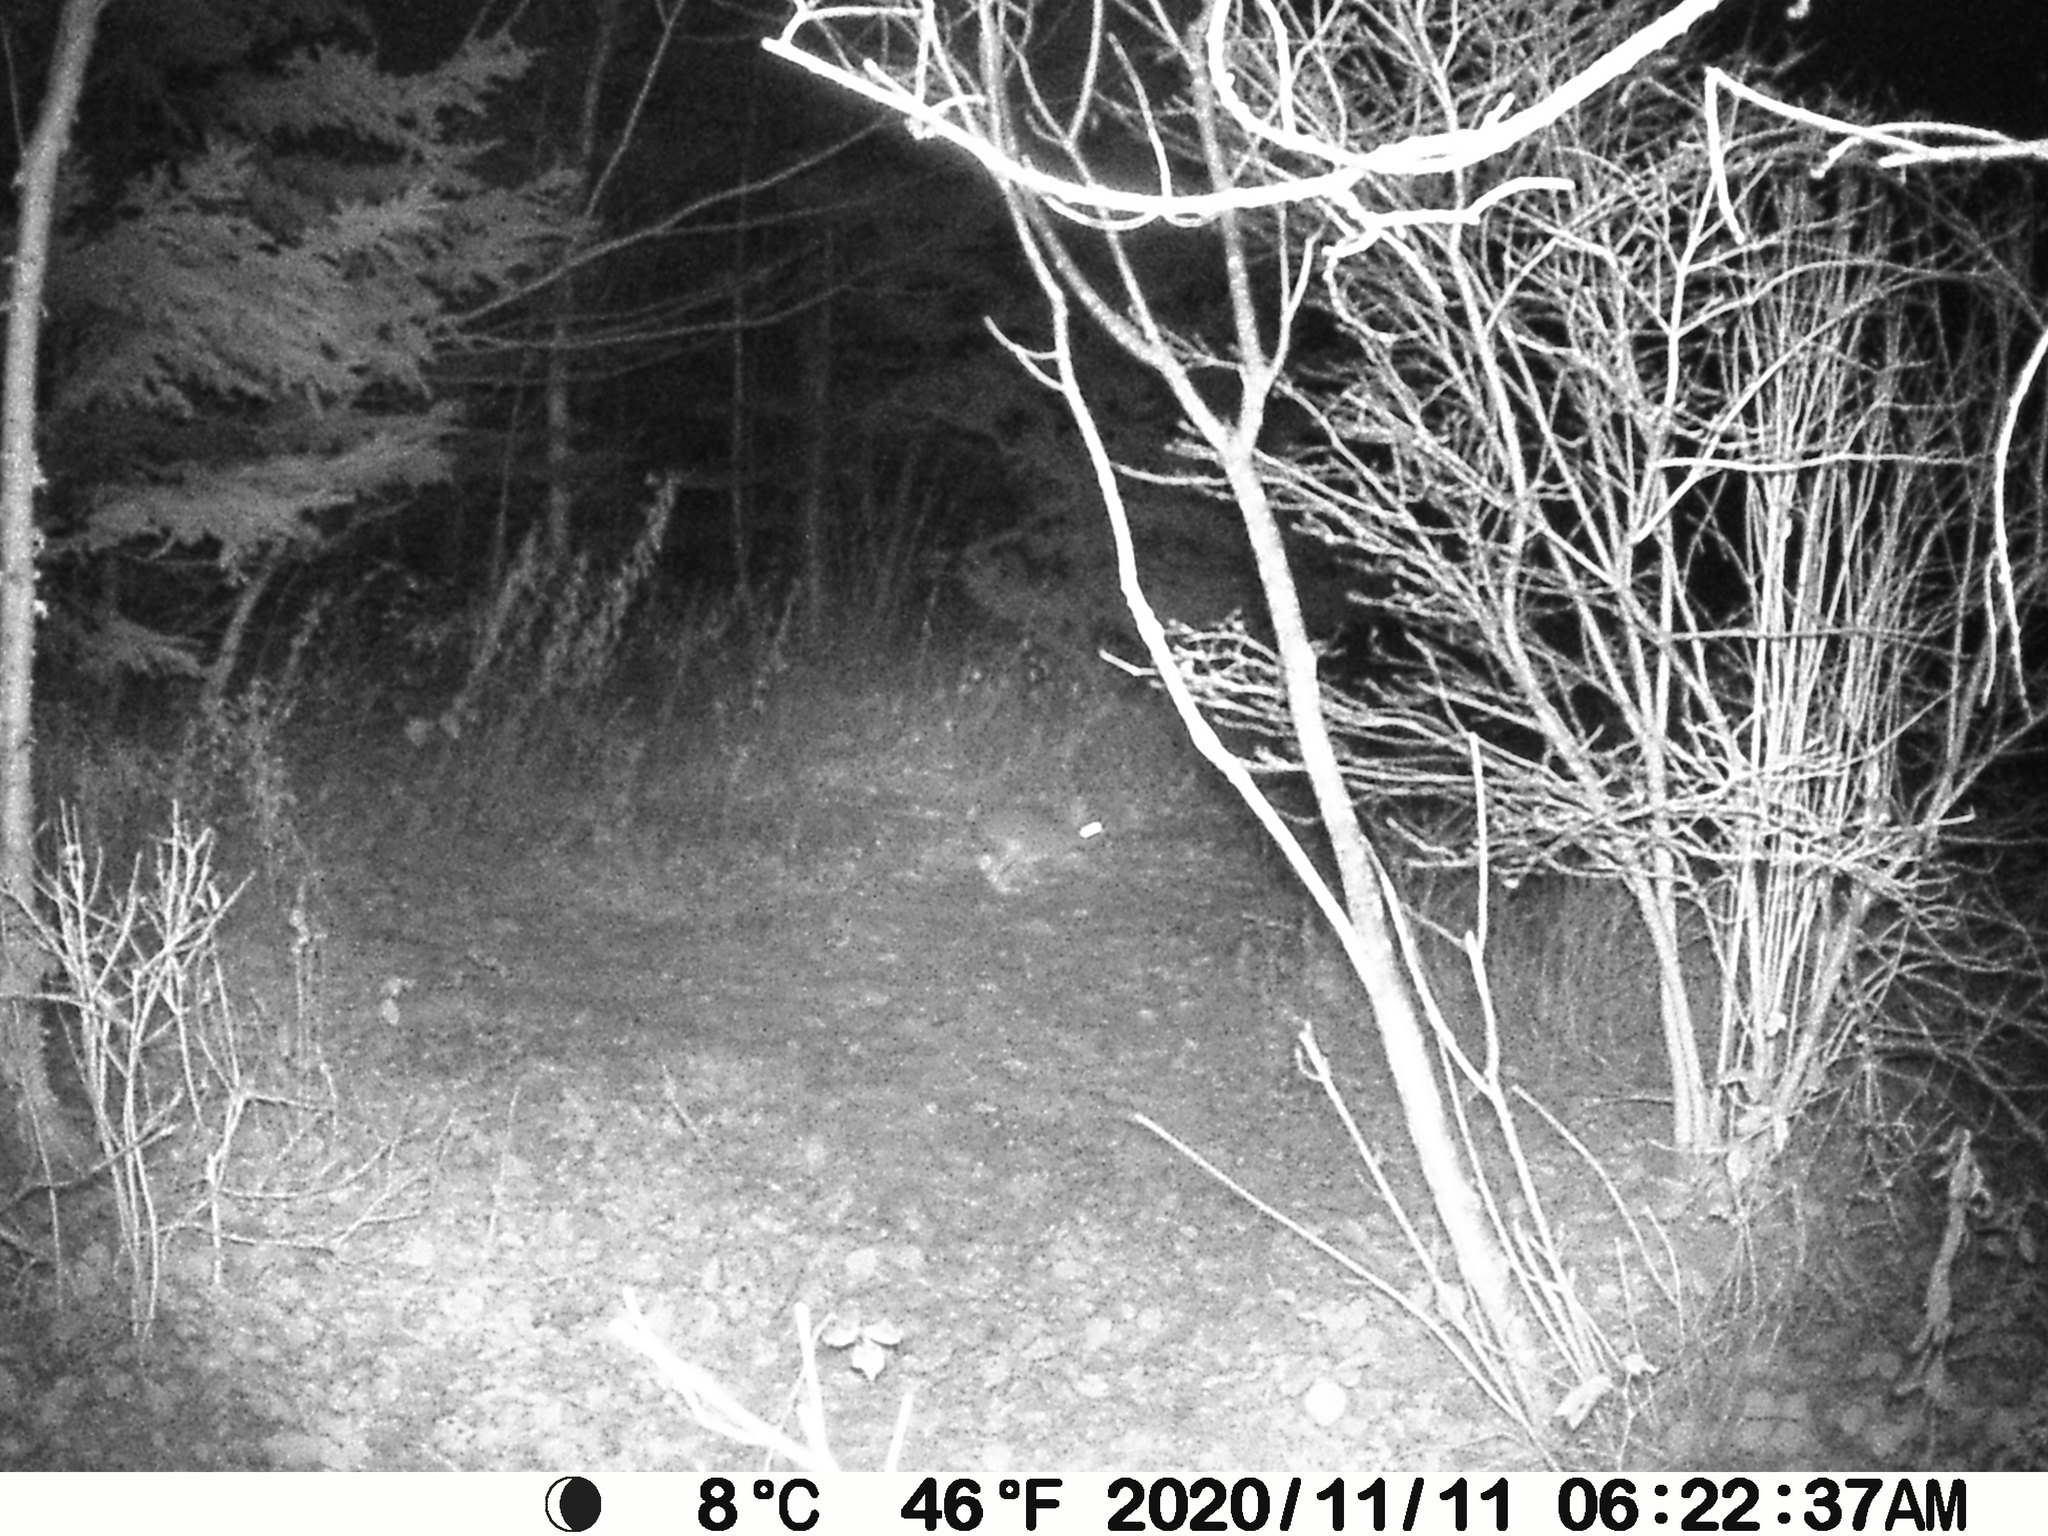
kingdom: Animalia
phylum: Chordata
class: Mammalia
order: Lagomorpha
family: Leporidae
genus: Lepus
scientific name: Lepus americanus
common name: Snowshoe hare
